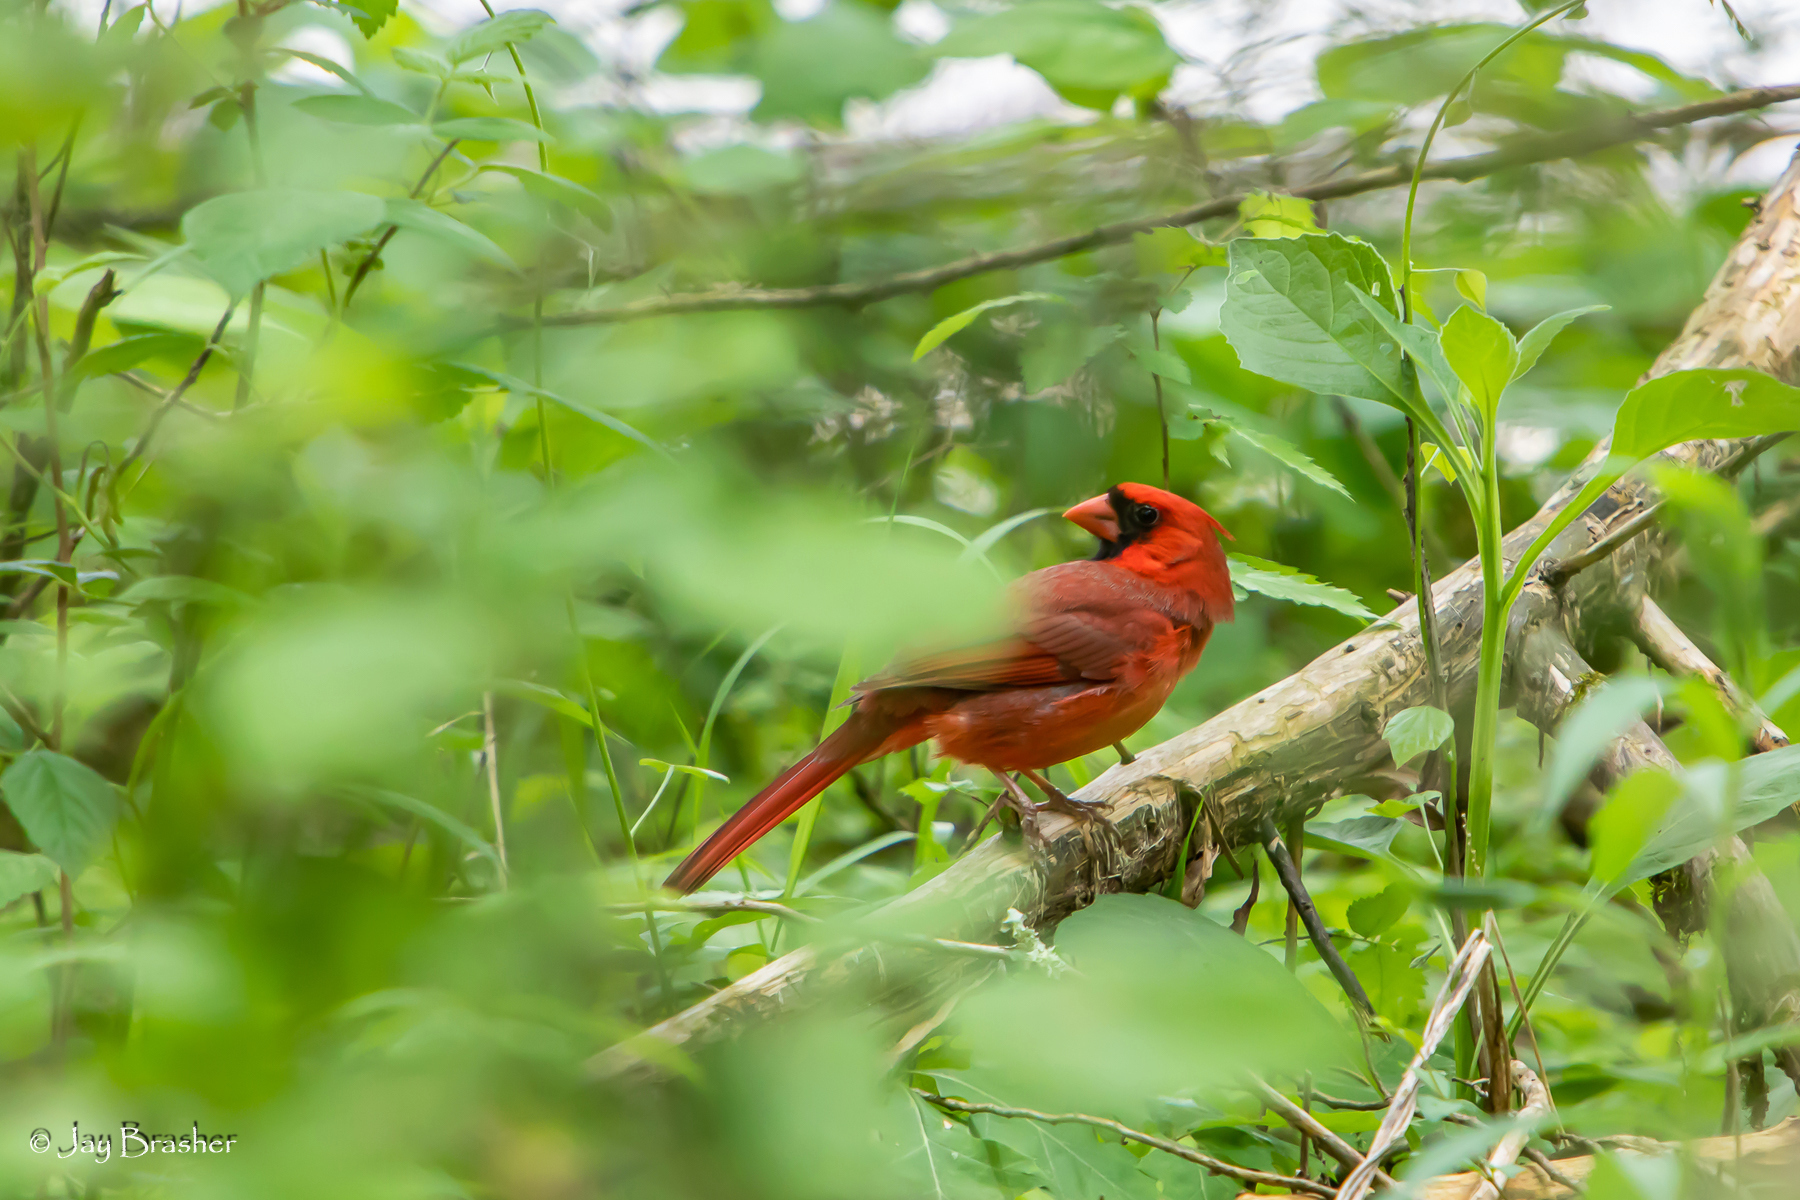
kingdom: Animalia
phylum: Chordata
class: Aves
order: Passeriformes
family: Cardinalidae
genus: Cardinalis
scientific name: Cardinalis cardinalis
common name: Northern cardinal
